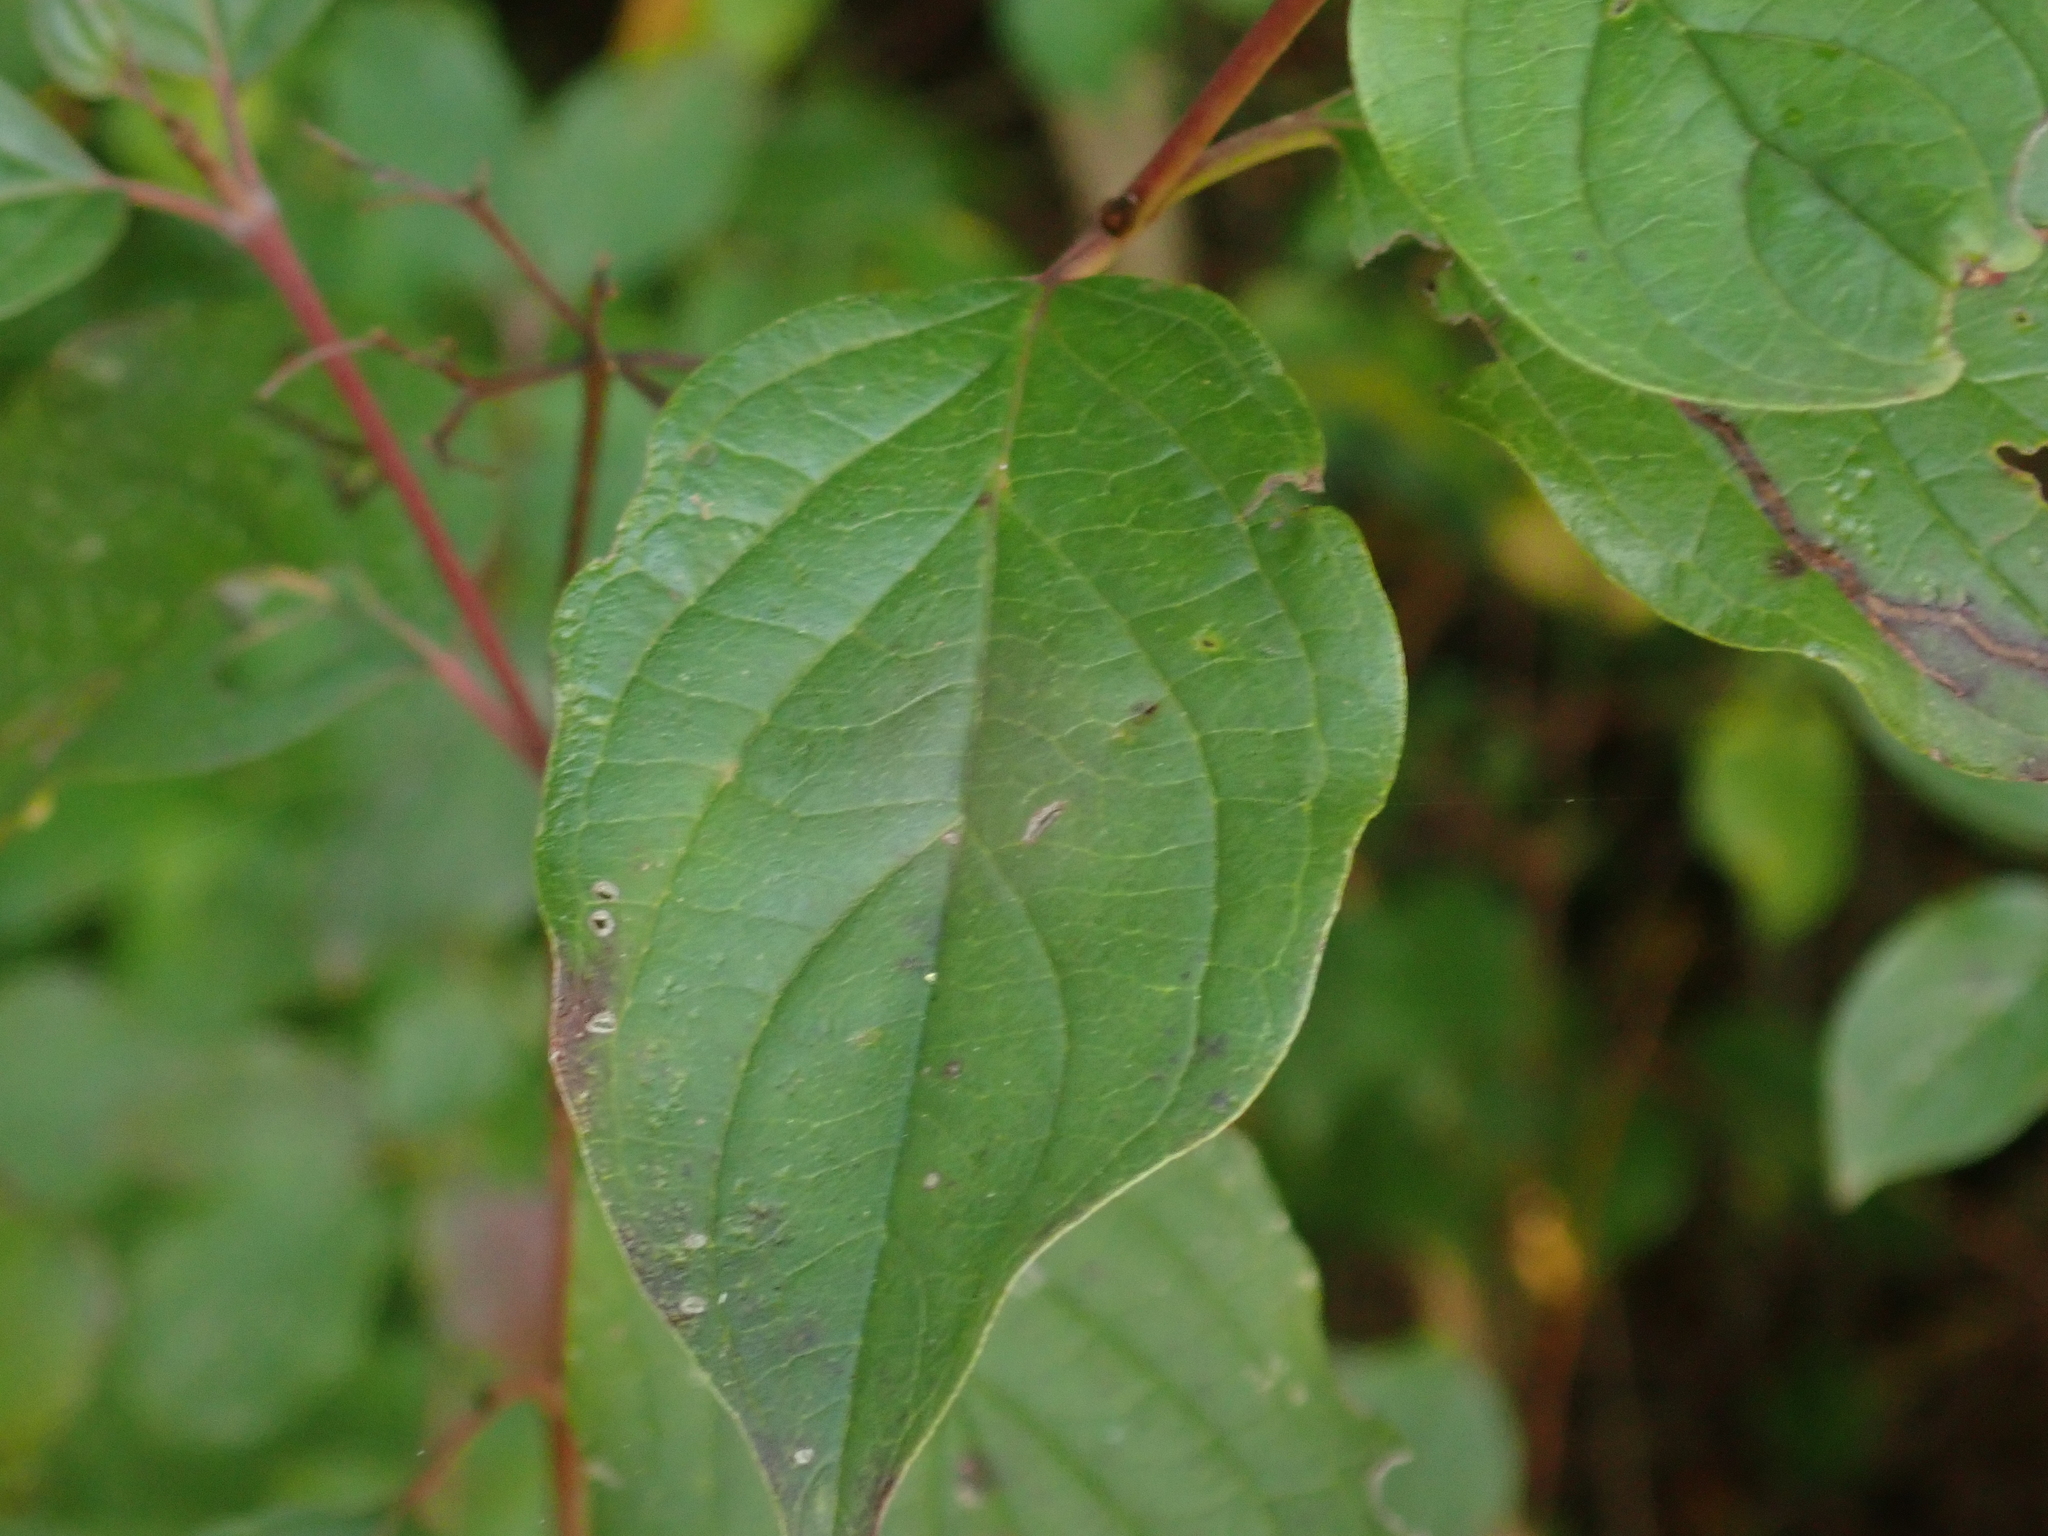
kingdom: Plantae
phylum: Tracheophyta
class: Magnoliopsida
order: Cornales
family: Cornaceae
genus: Cornus
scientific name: Cornus sanguinea
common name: Dogwood
